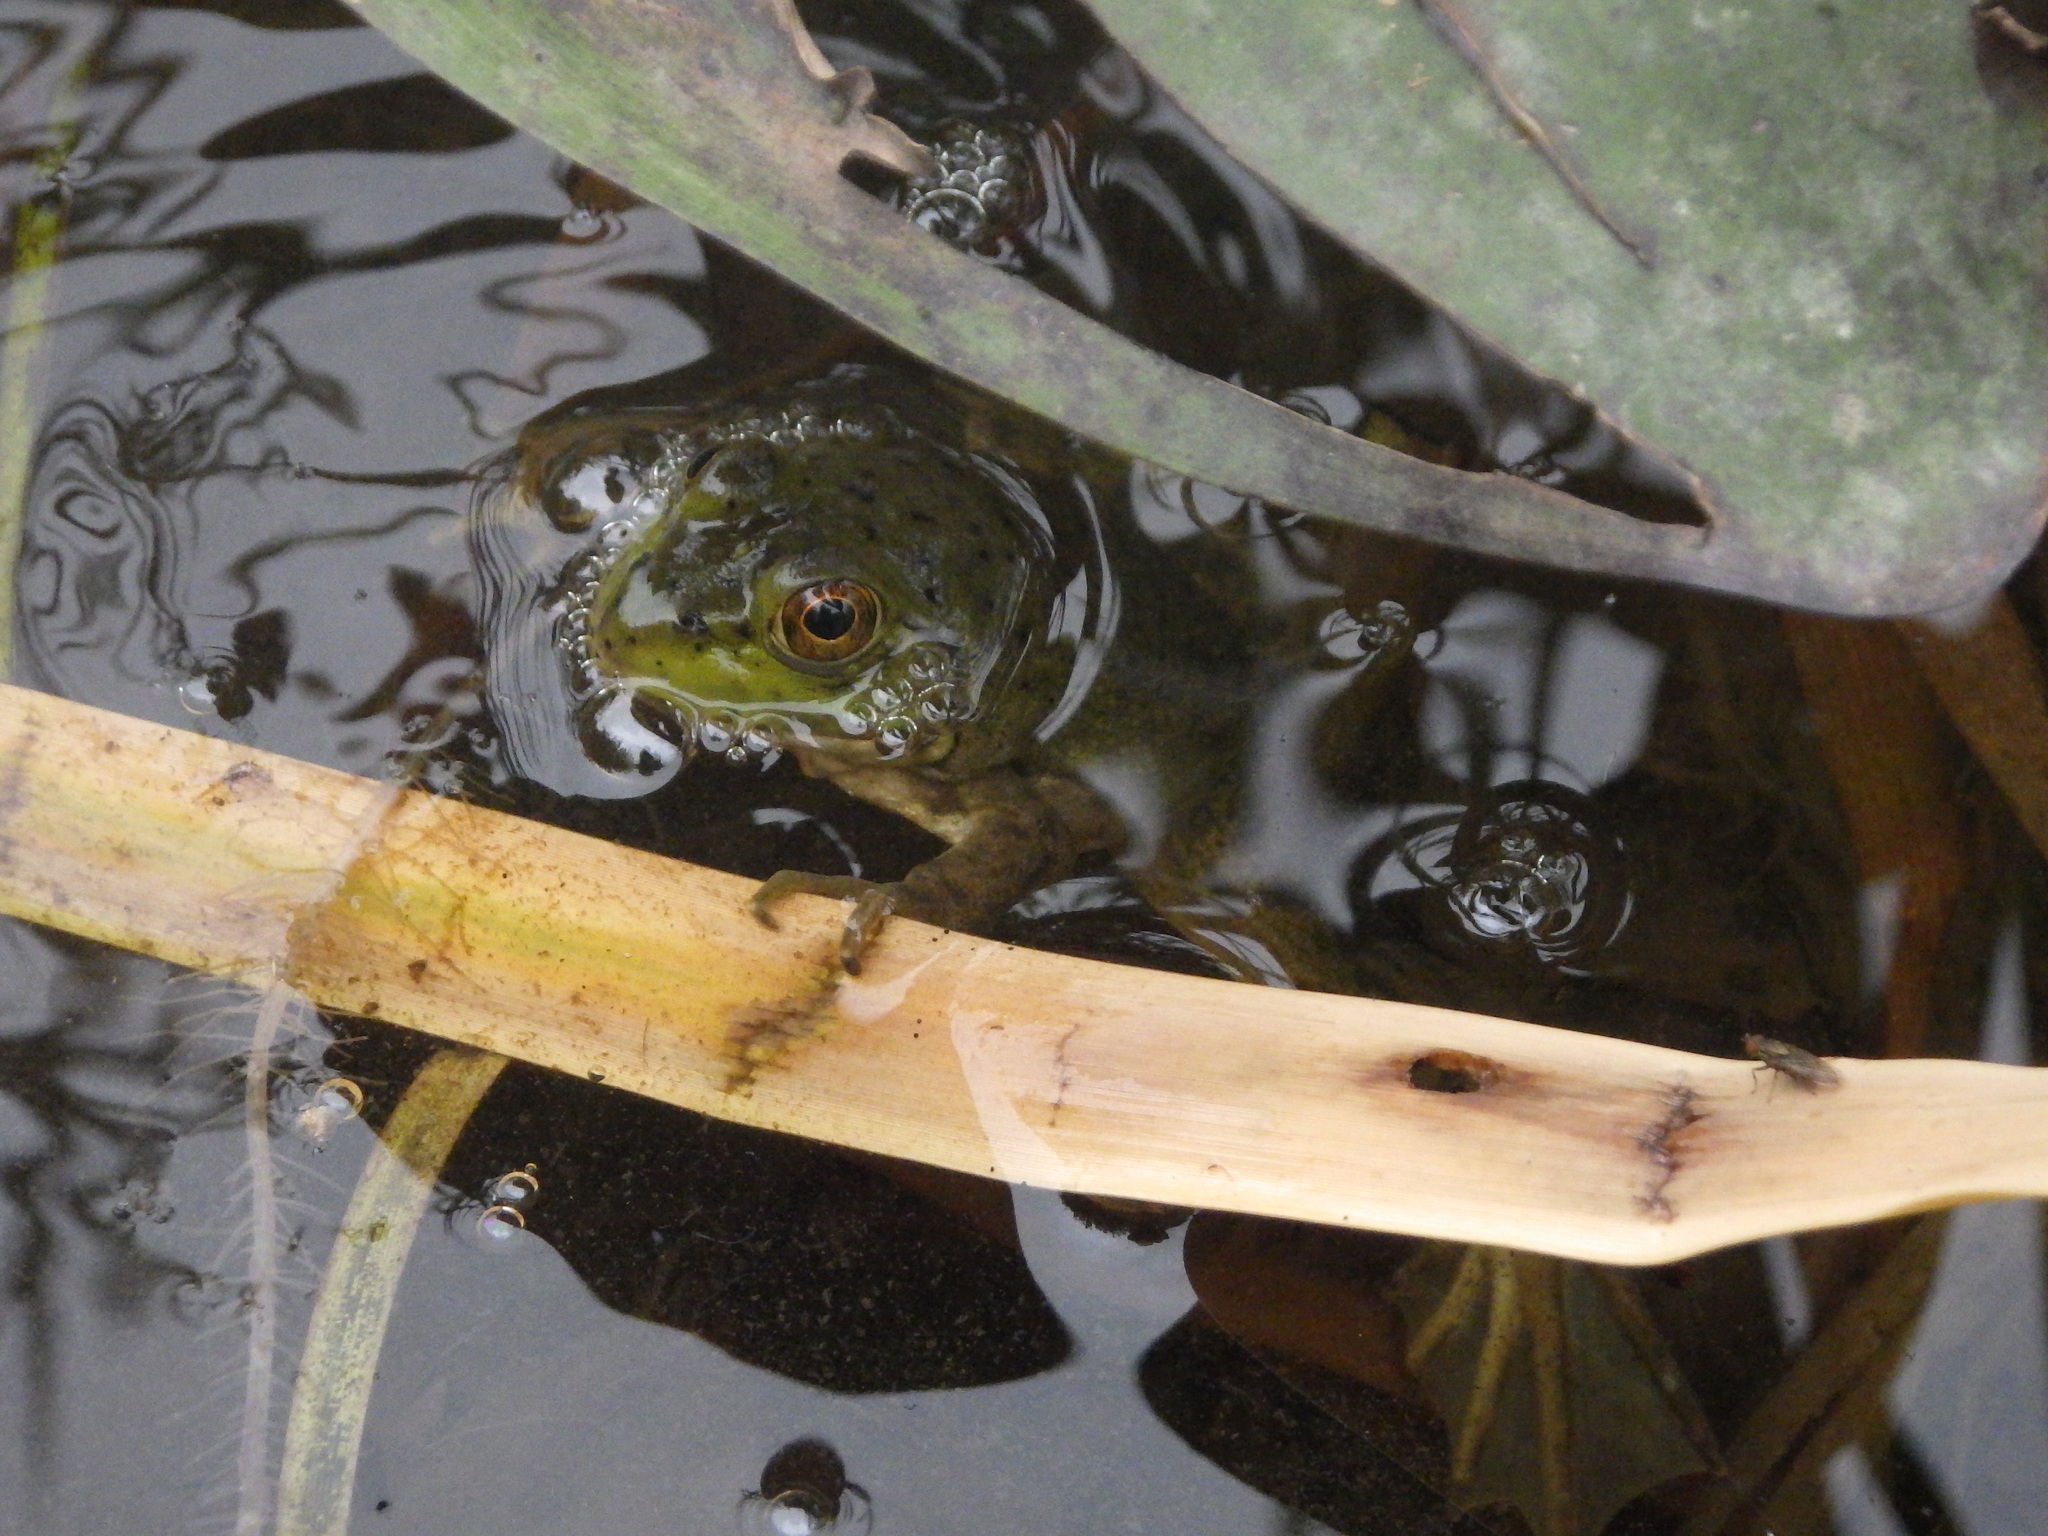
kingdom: Animalia
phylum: Chordata
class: Amphibia
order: Anura
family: Ranidae
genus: Lithobates
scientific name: Lithobates catesbeianus
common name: American bullfrog
